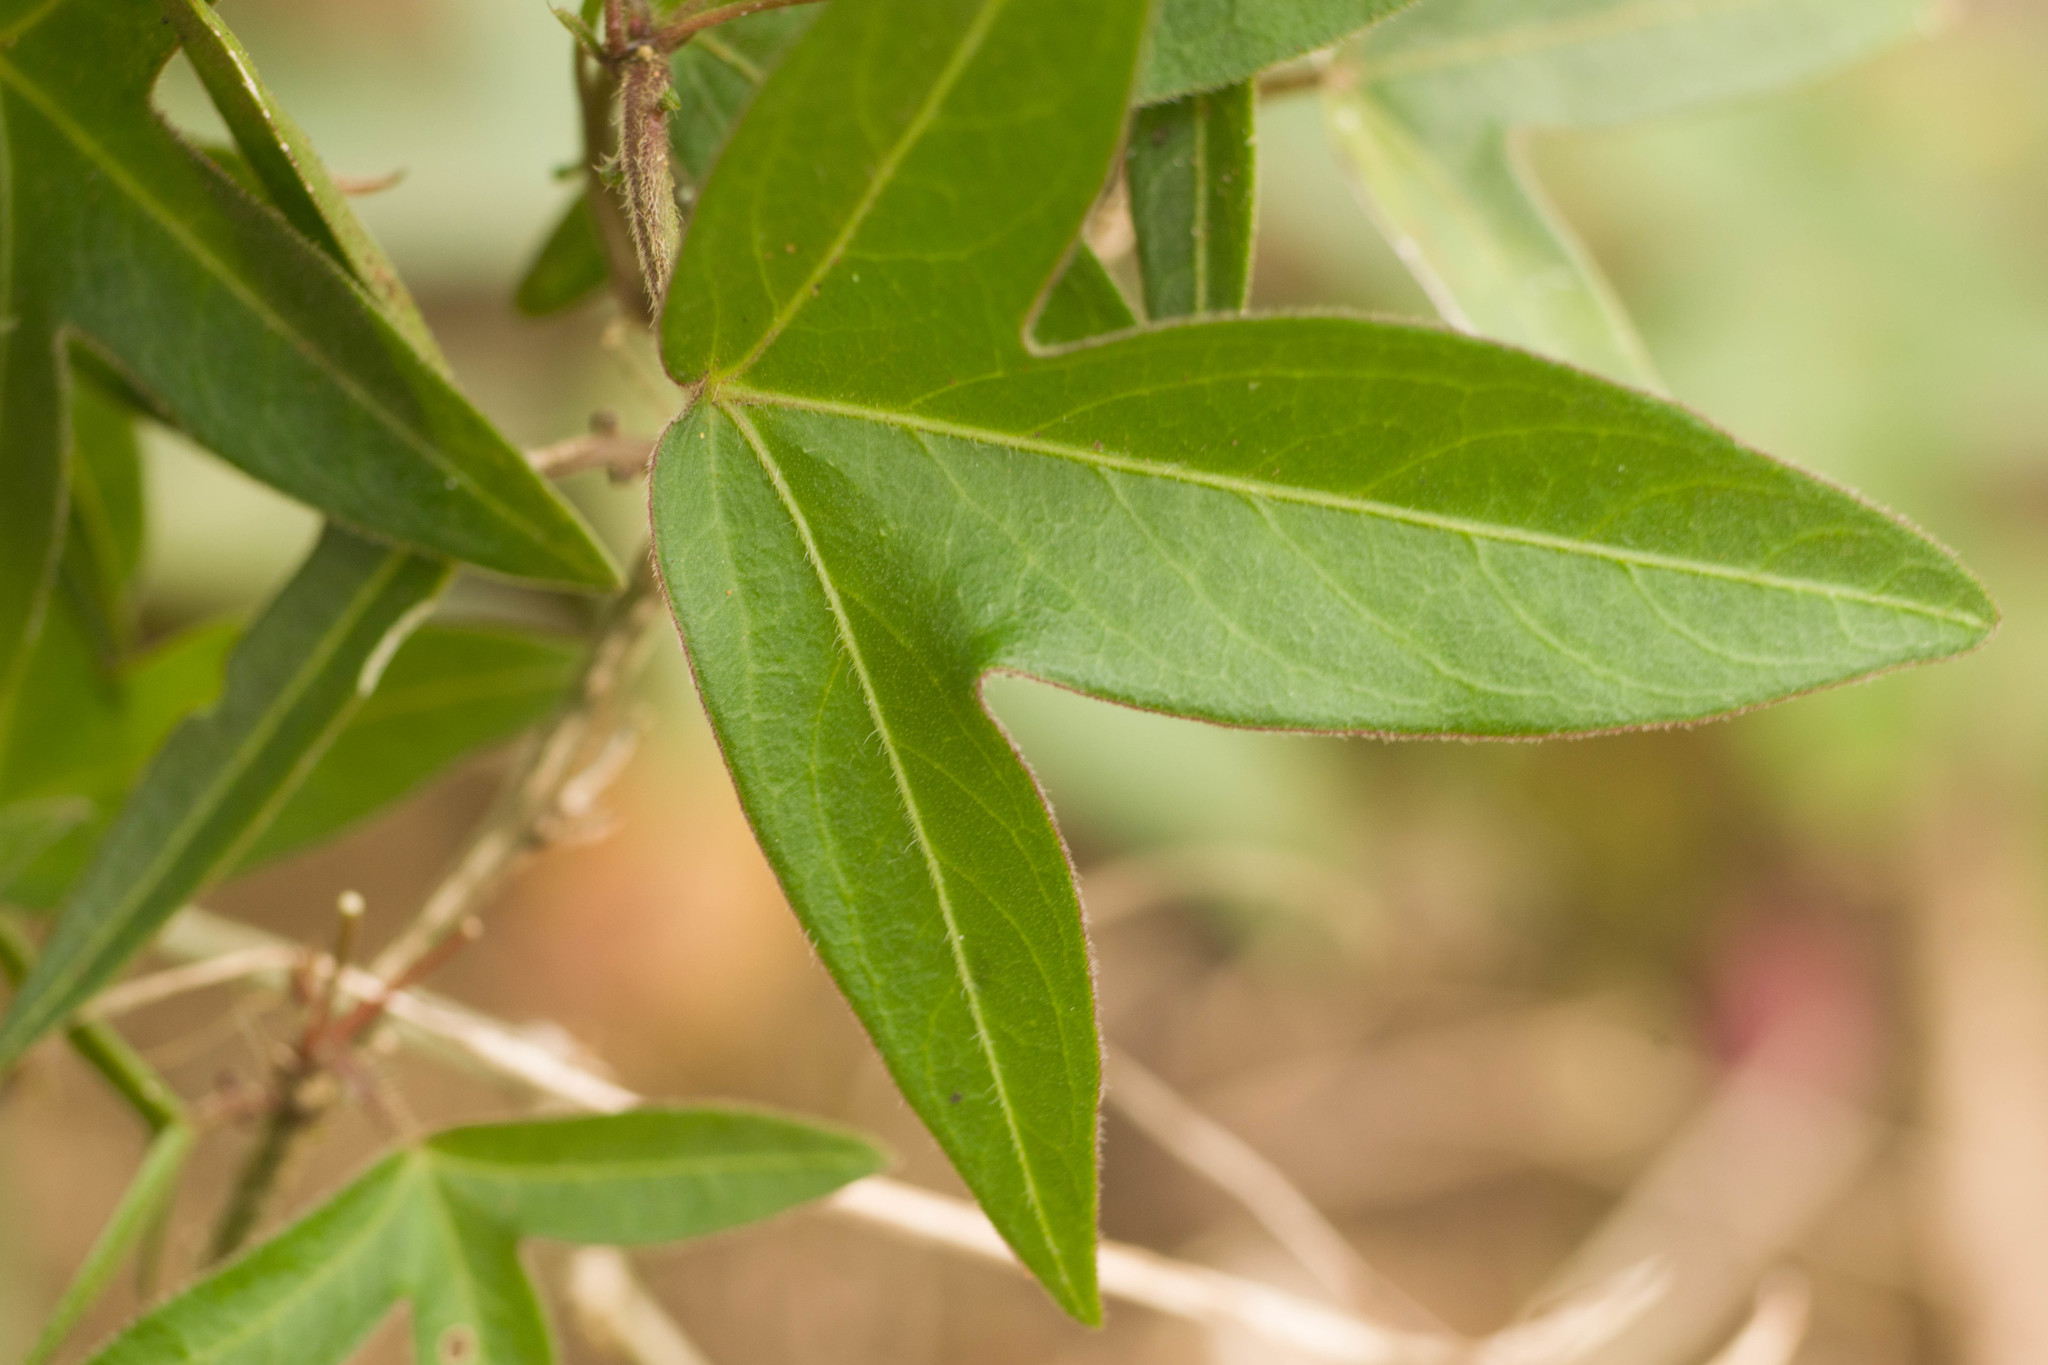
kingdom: Plantae
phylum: Tracheophyta
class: Magnoliopsida
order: Malpighiales
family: Passifloraceae
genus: Passiflora
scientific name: Passiflora suberosa
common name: Wild passionfruit
